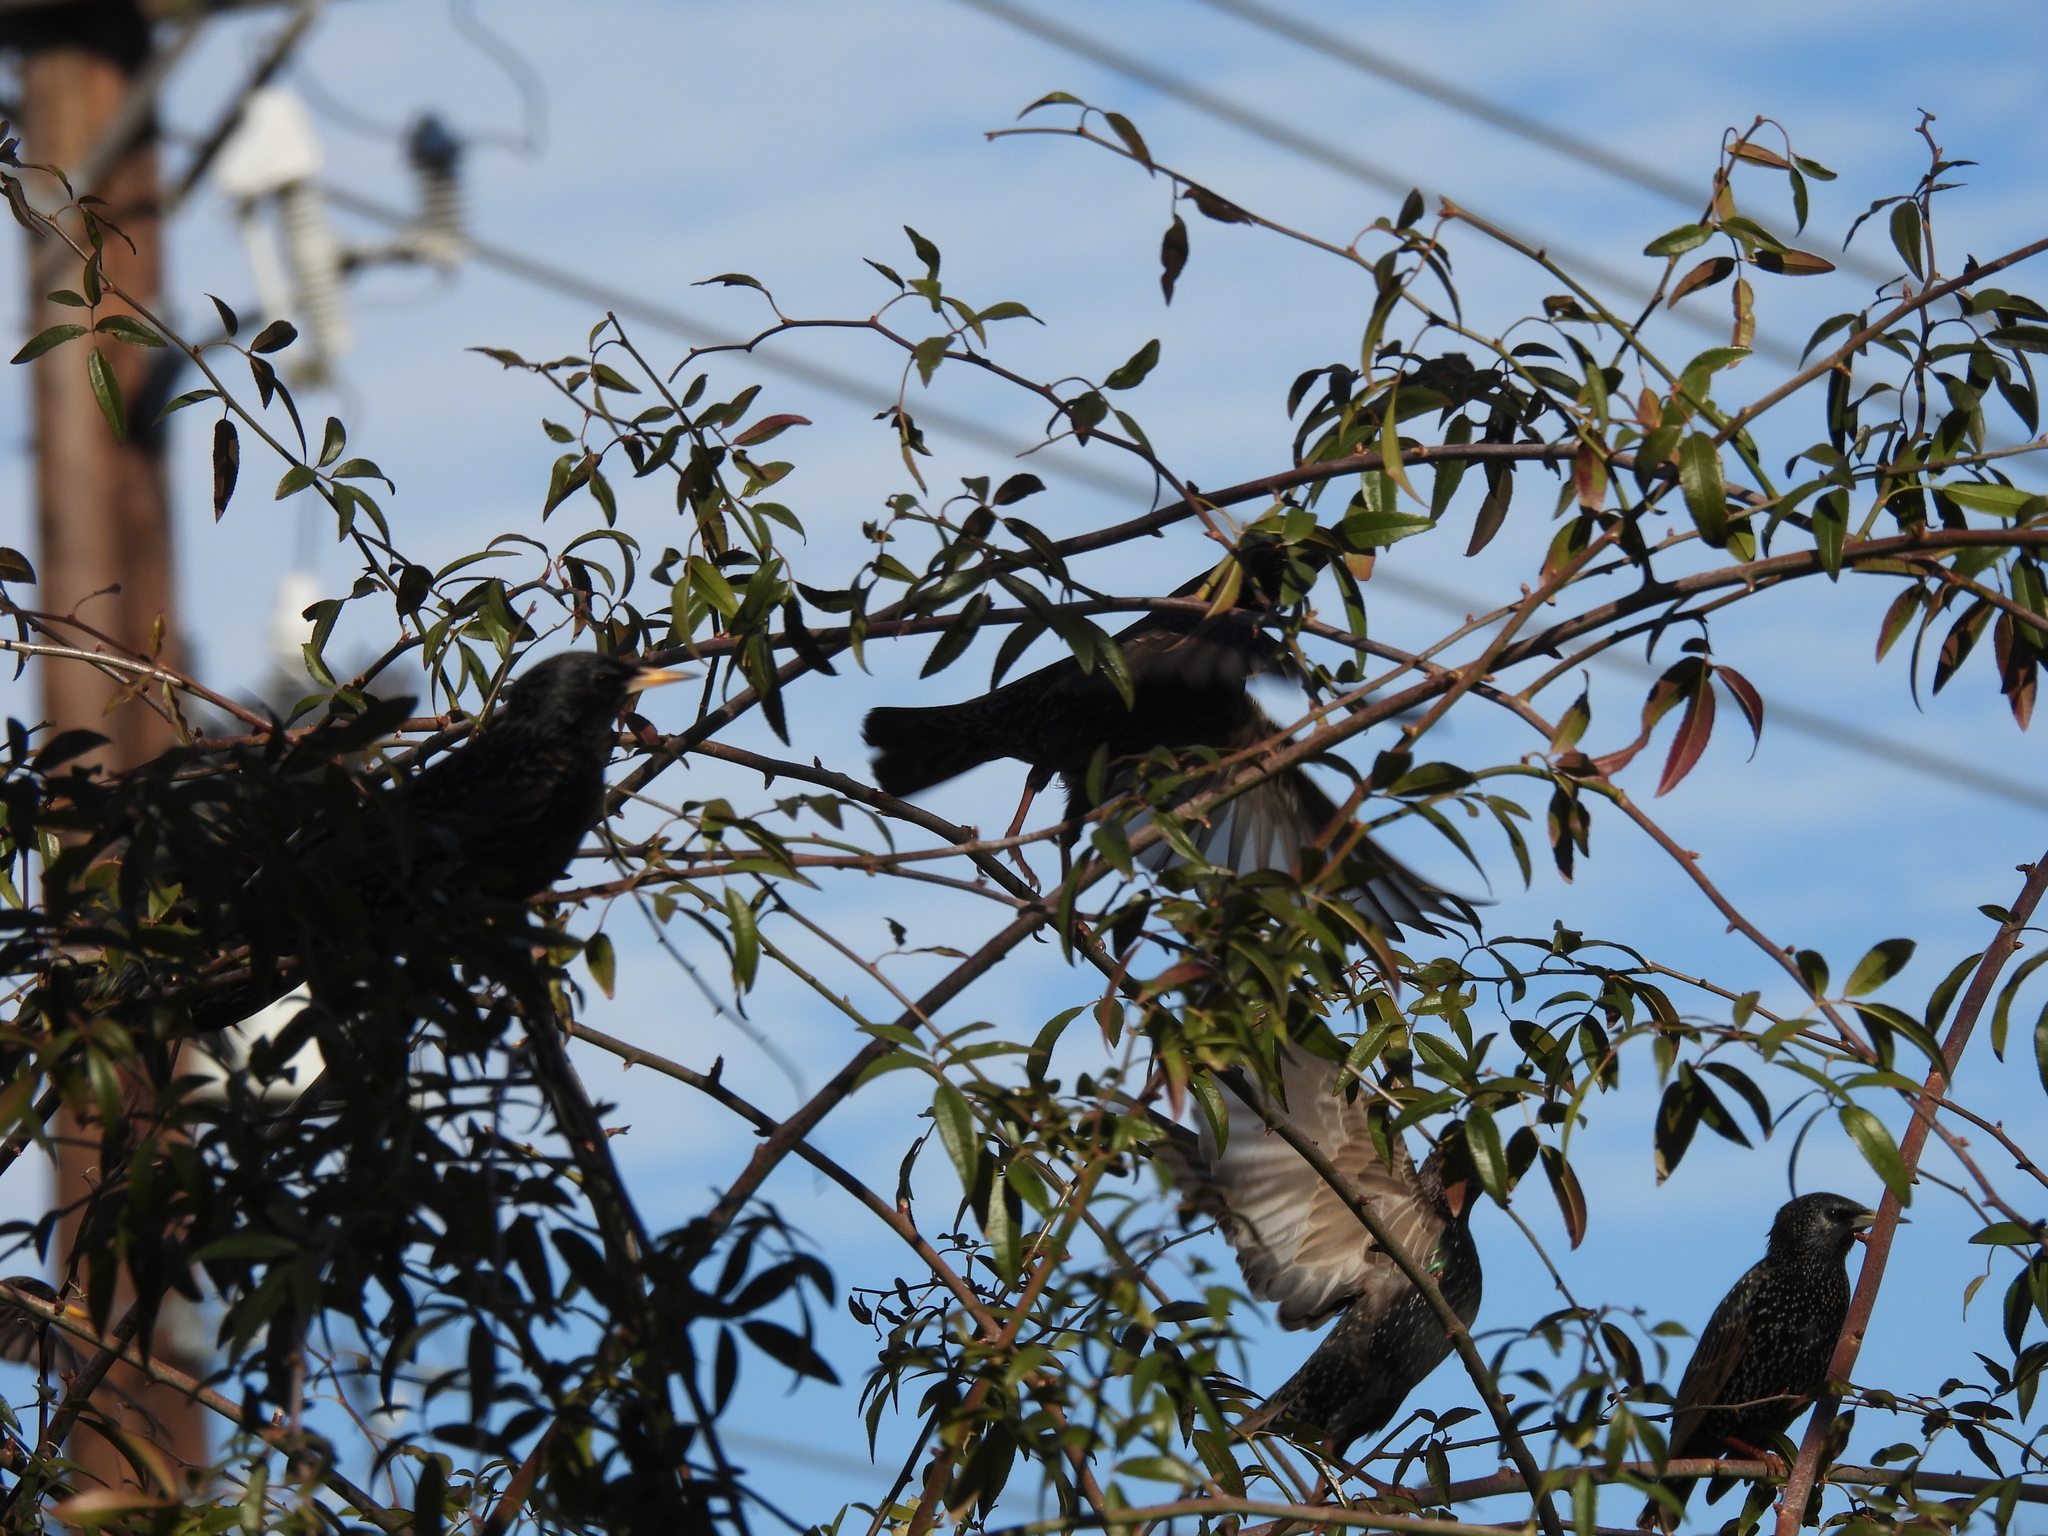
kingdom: Animalia
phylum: Chordata
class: Aves
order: Passeriformes
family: Sturnidae
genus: Sturnus
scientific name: Sturnus vulgaris
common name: Common starling
